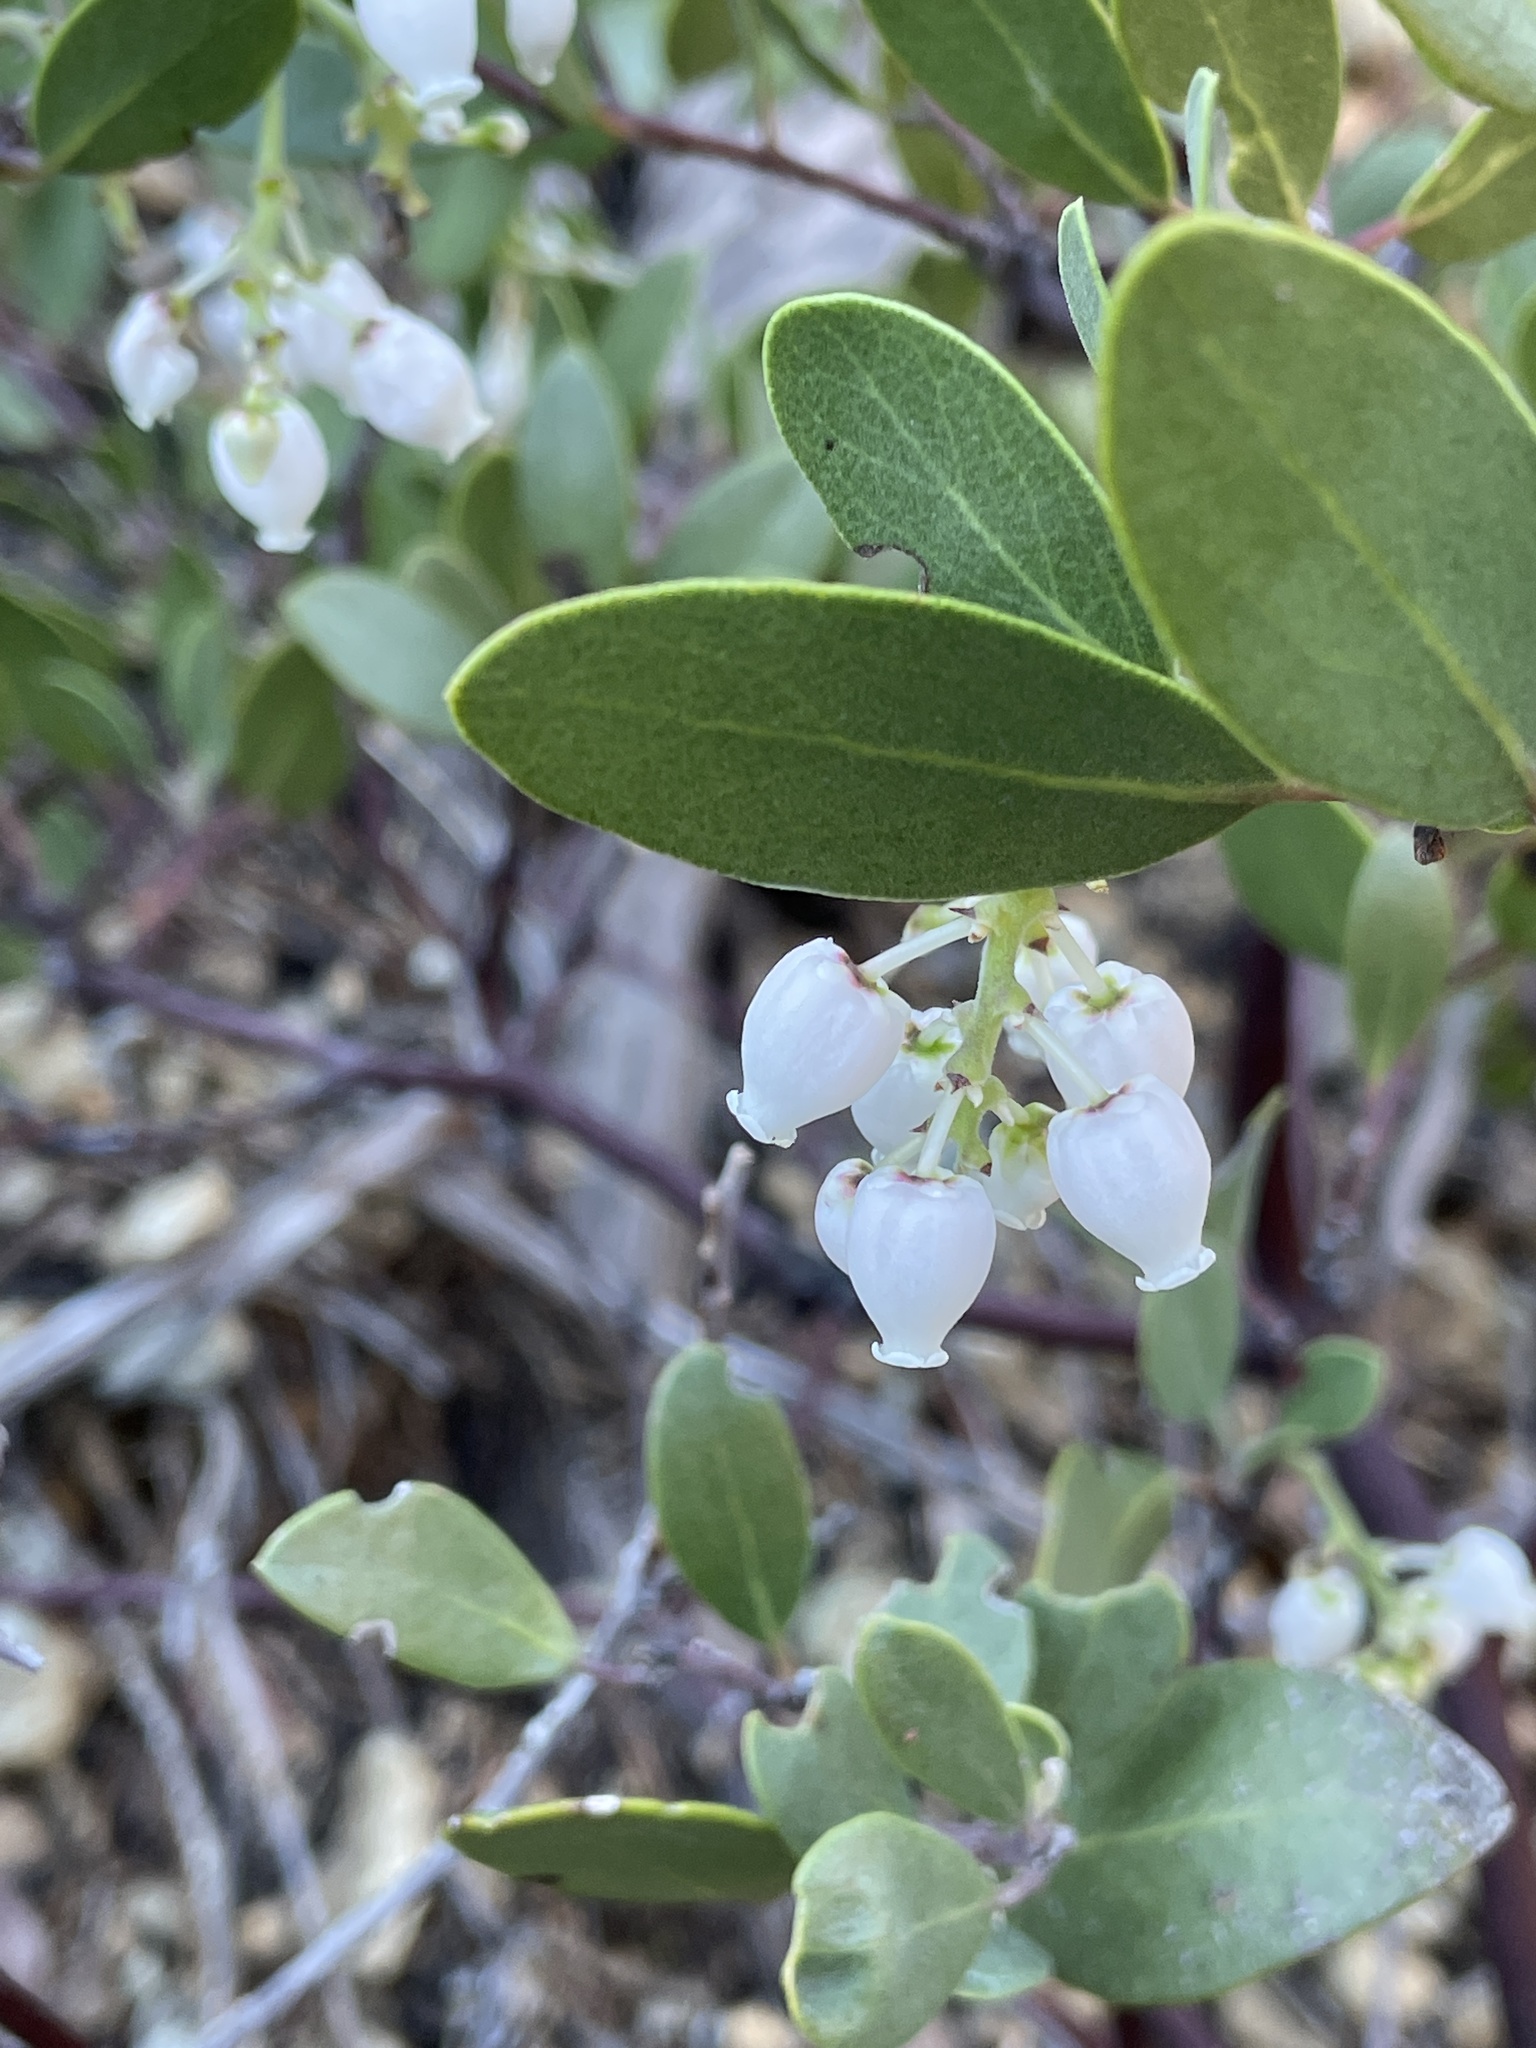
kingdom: Plantae
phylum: Tracheophyta
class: Magnoliopsida
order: Ericales
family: Ericaceae
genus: Arctostaphylos
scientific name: Arctostaphylos bakeri
